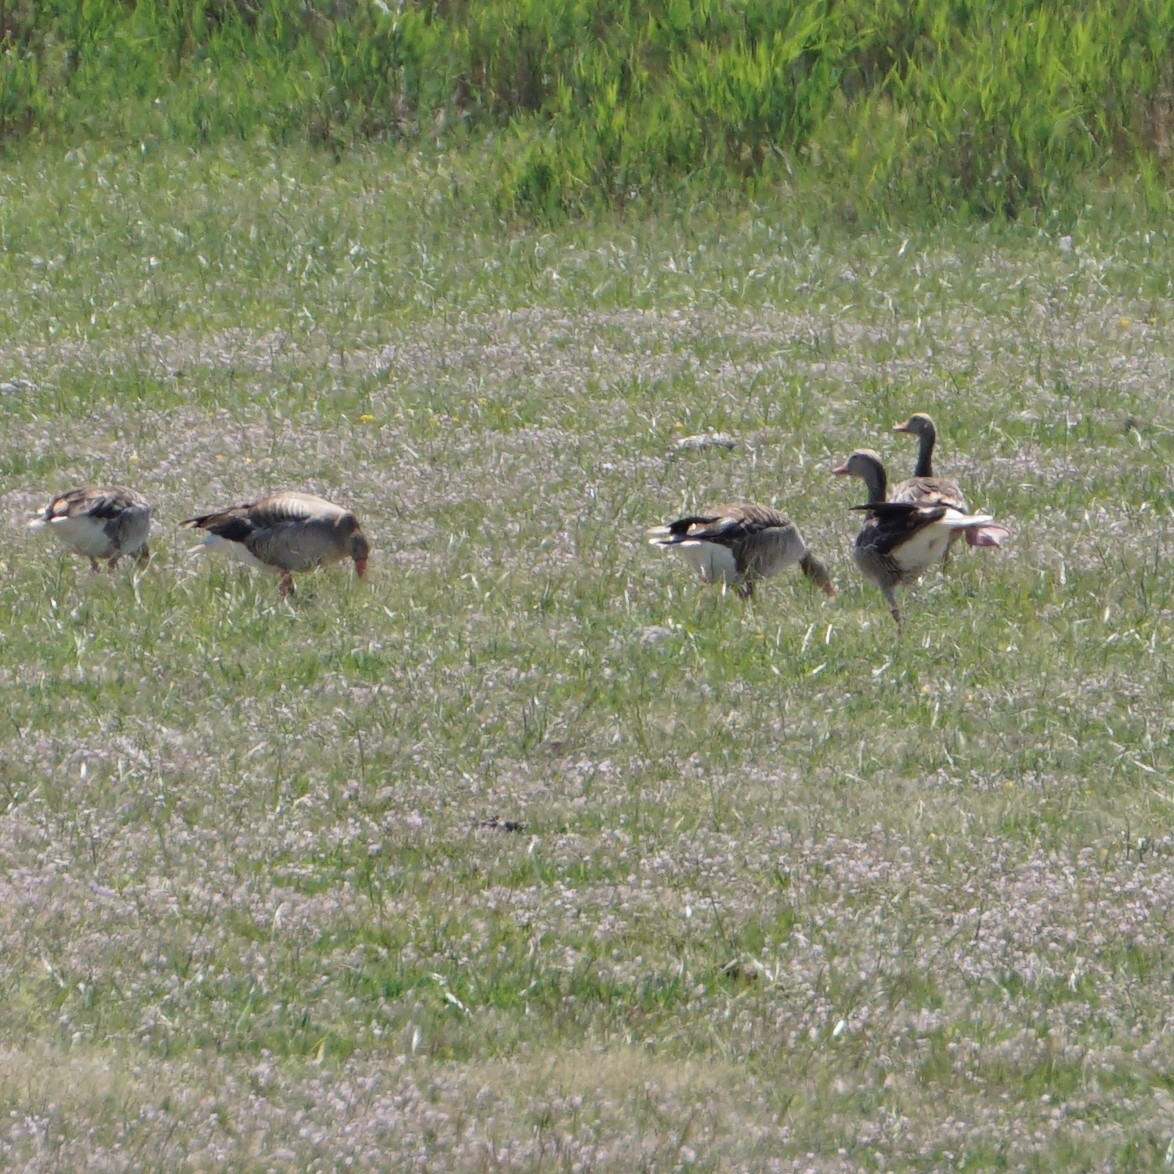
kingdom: Animalia
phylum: Chordata
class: Aves
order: Anseriformes
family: Anatidae
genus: Anser
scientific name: Anser anser
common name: Greylag goose
